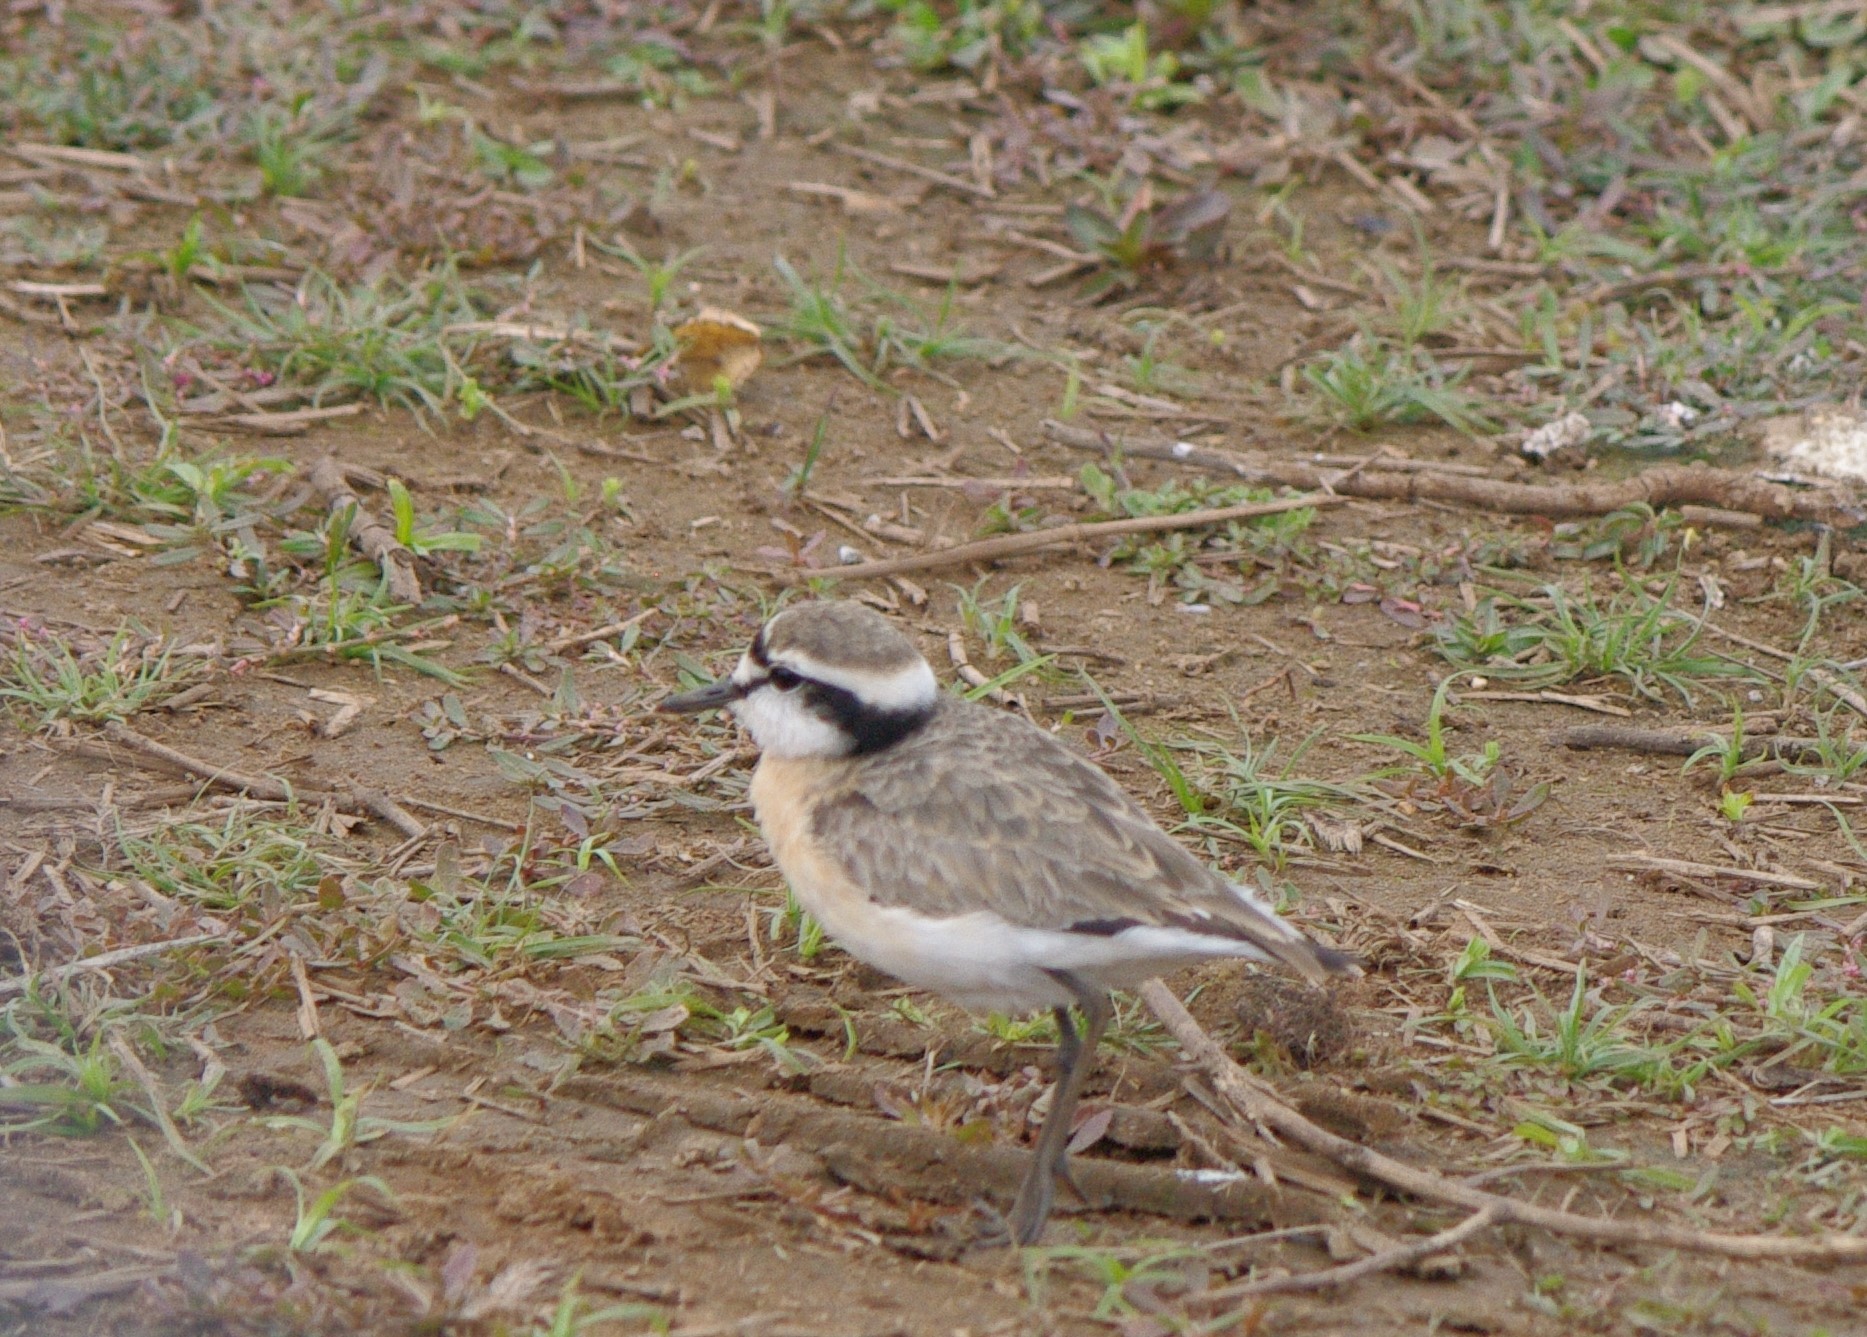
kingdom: Animalia
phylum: Chordata
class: Aves
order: Charadriiformes
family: Charadriidae
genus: Anarhynchus
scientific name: Anarhynchus
